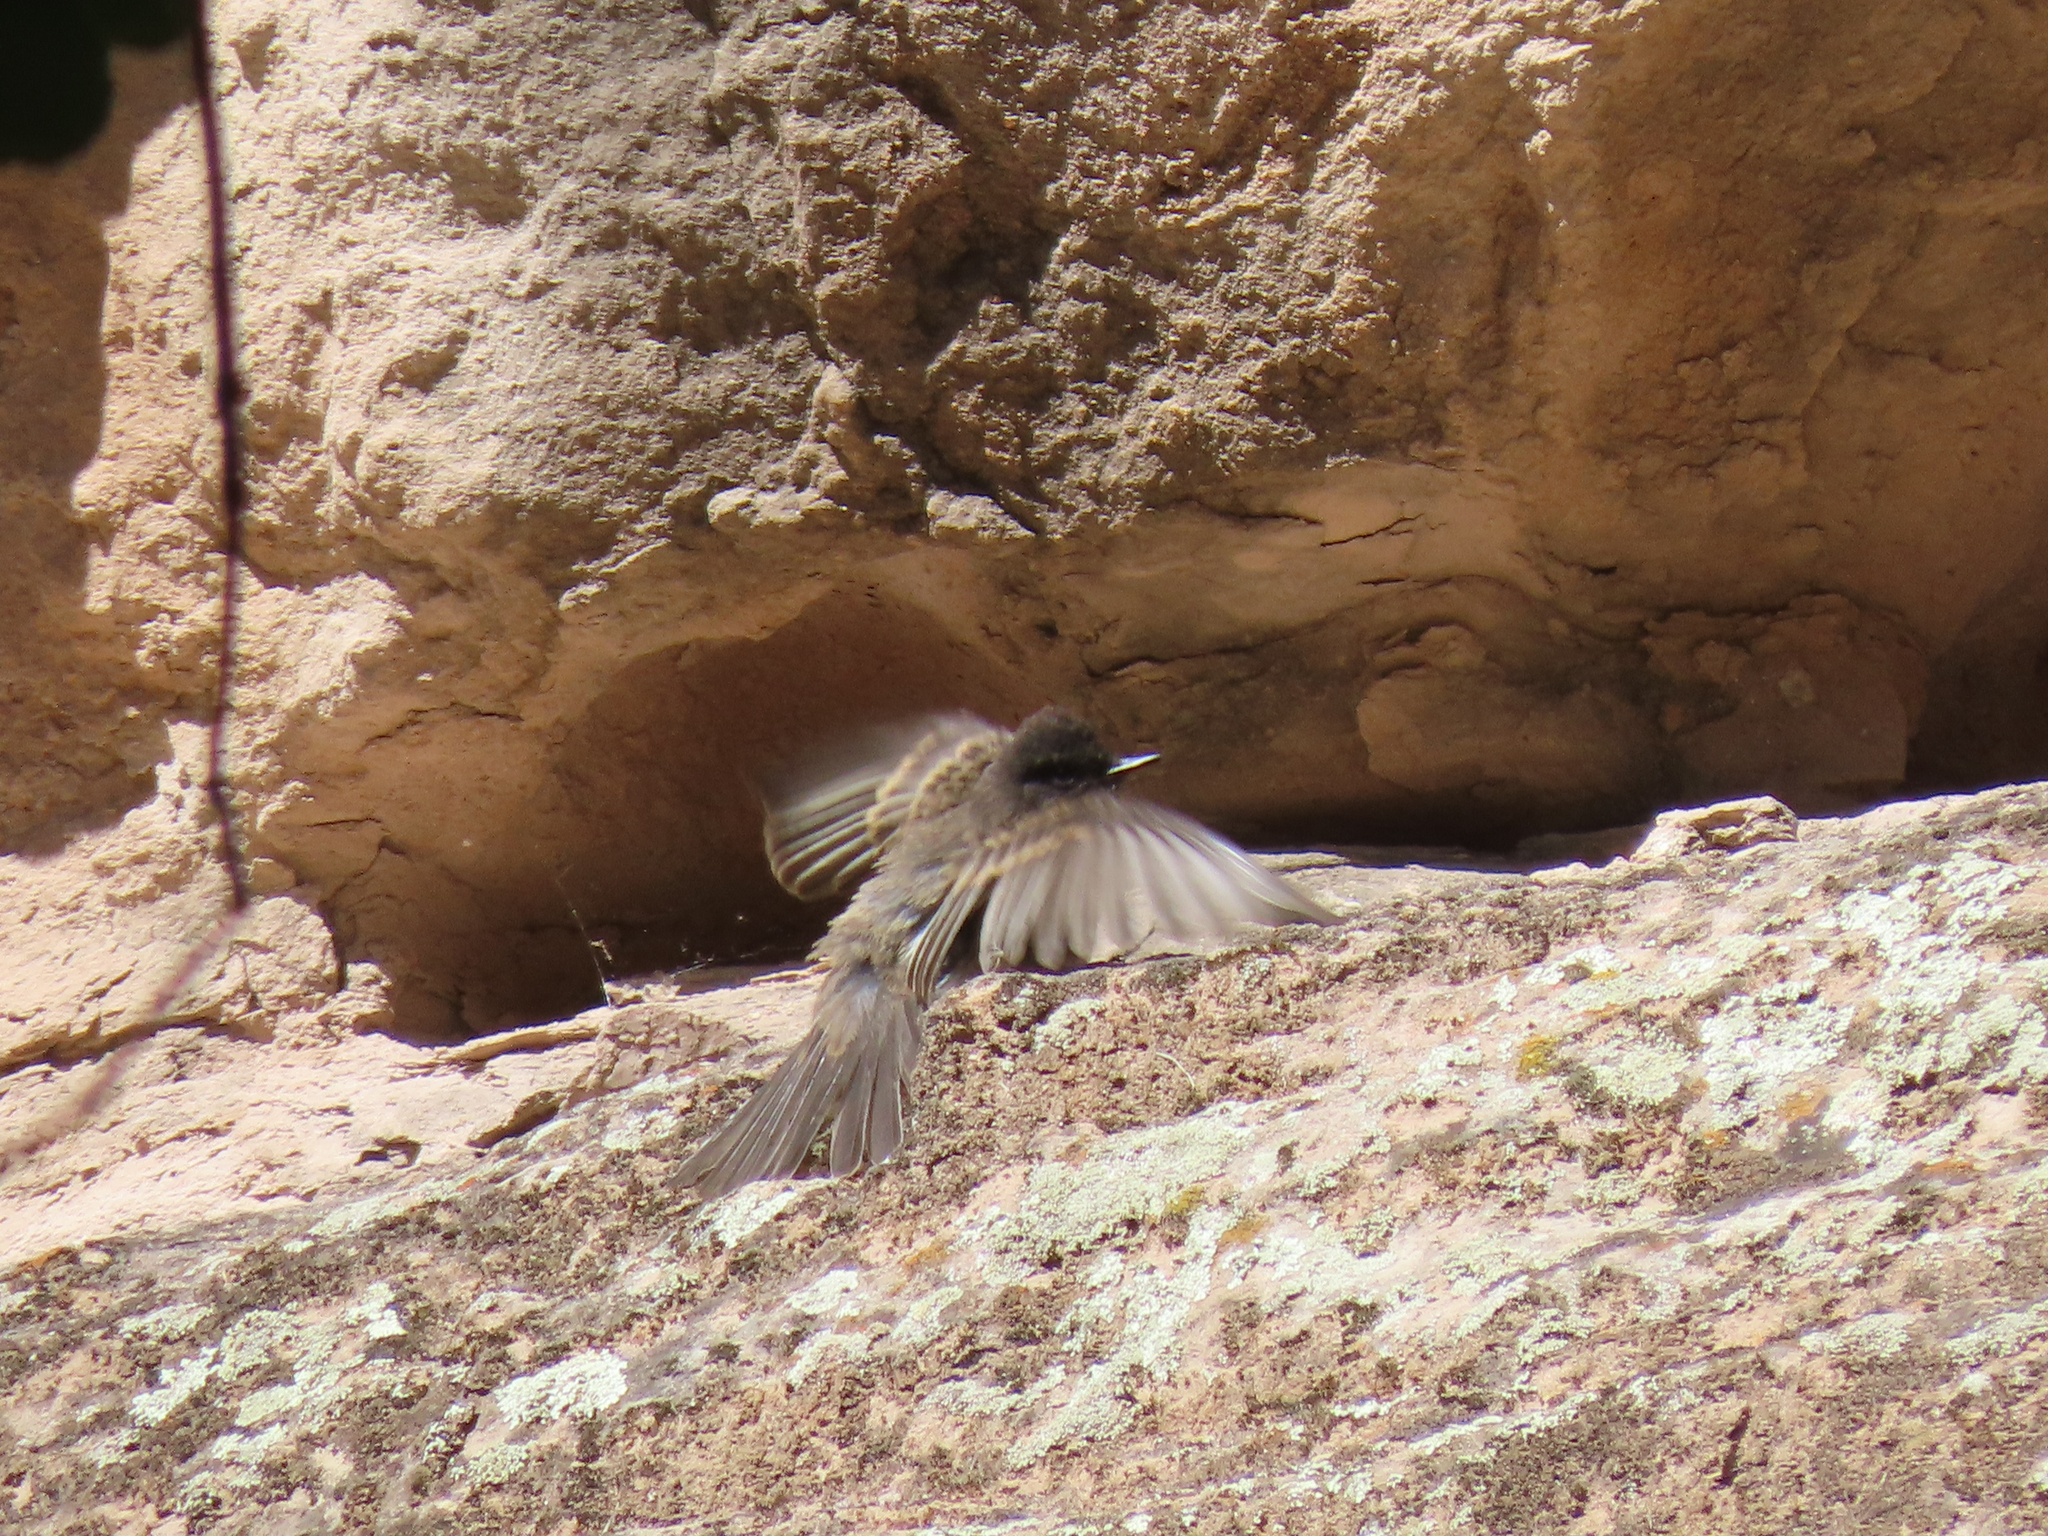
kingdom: Animalia
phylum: Chordata
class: Aves
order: Passeriformes
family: Tyrannidae
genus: Sayornis
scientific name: Sayornis nigricans
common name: Black phoebe
